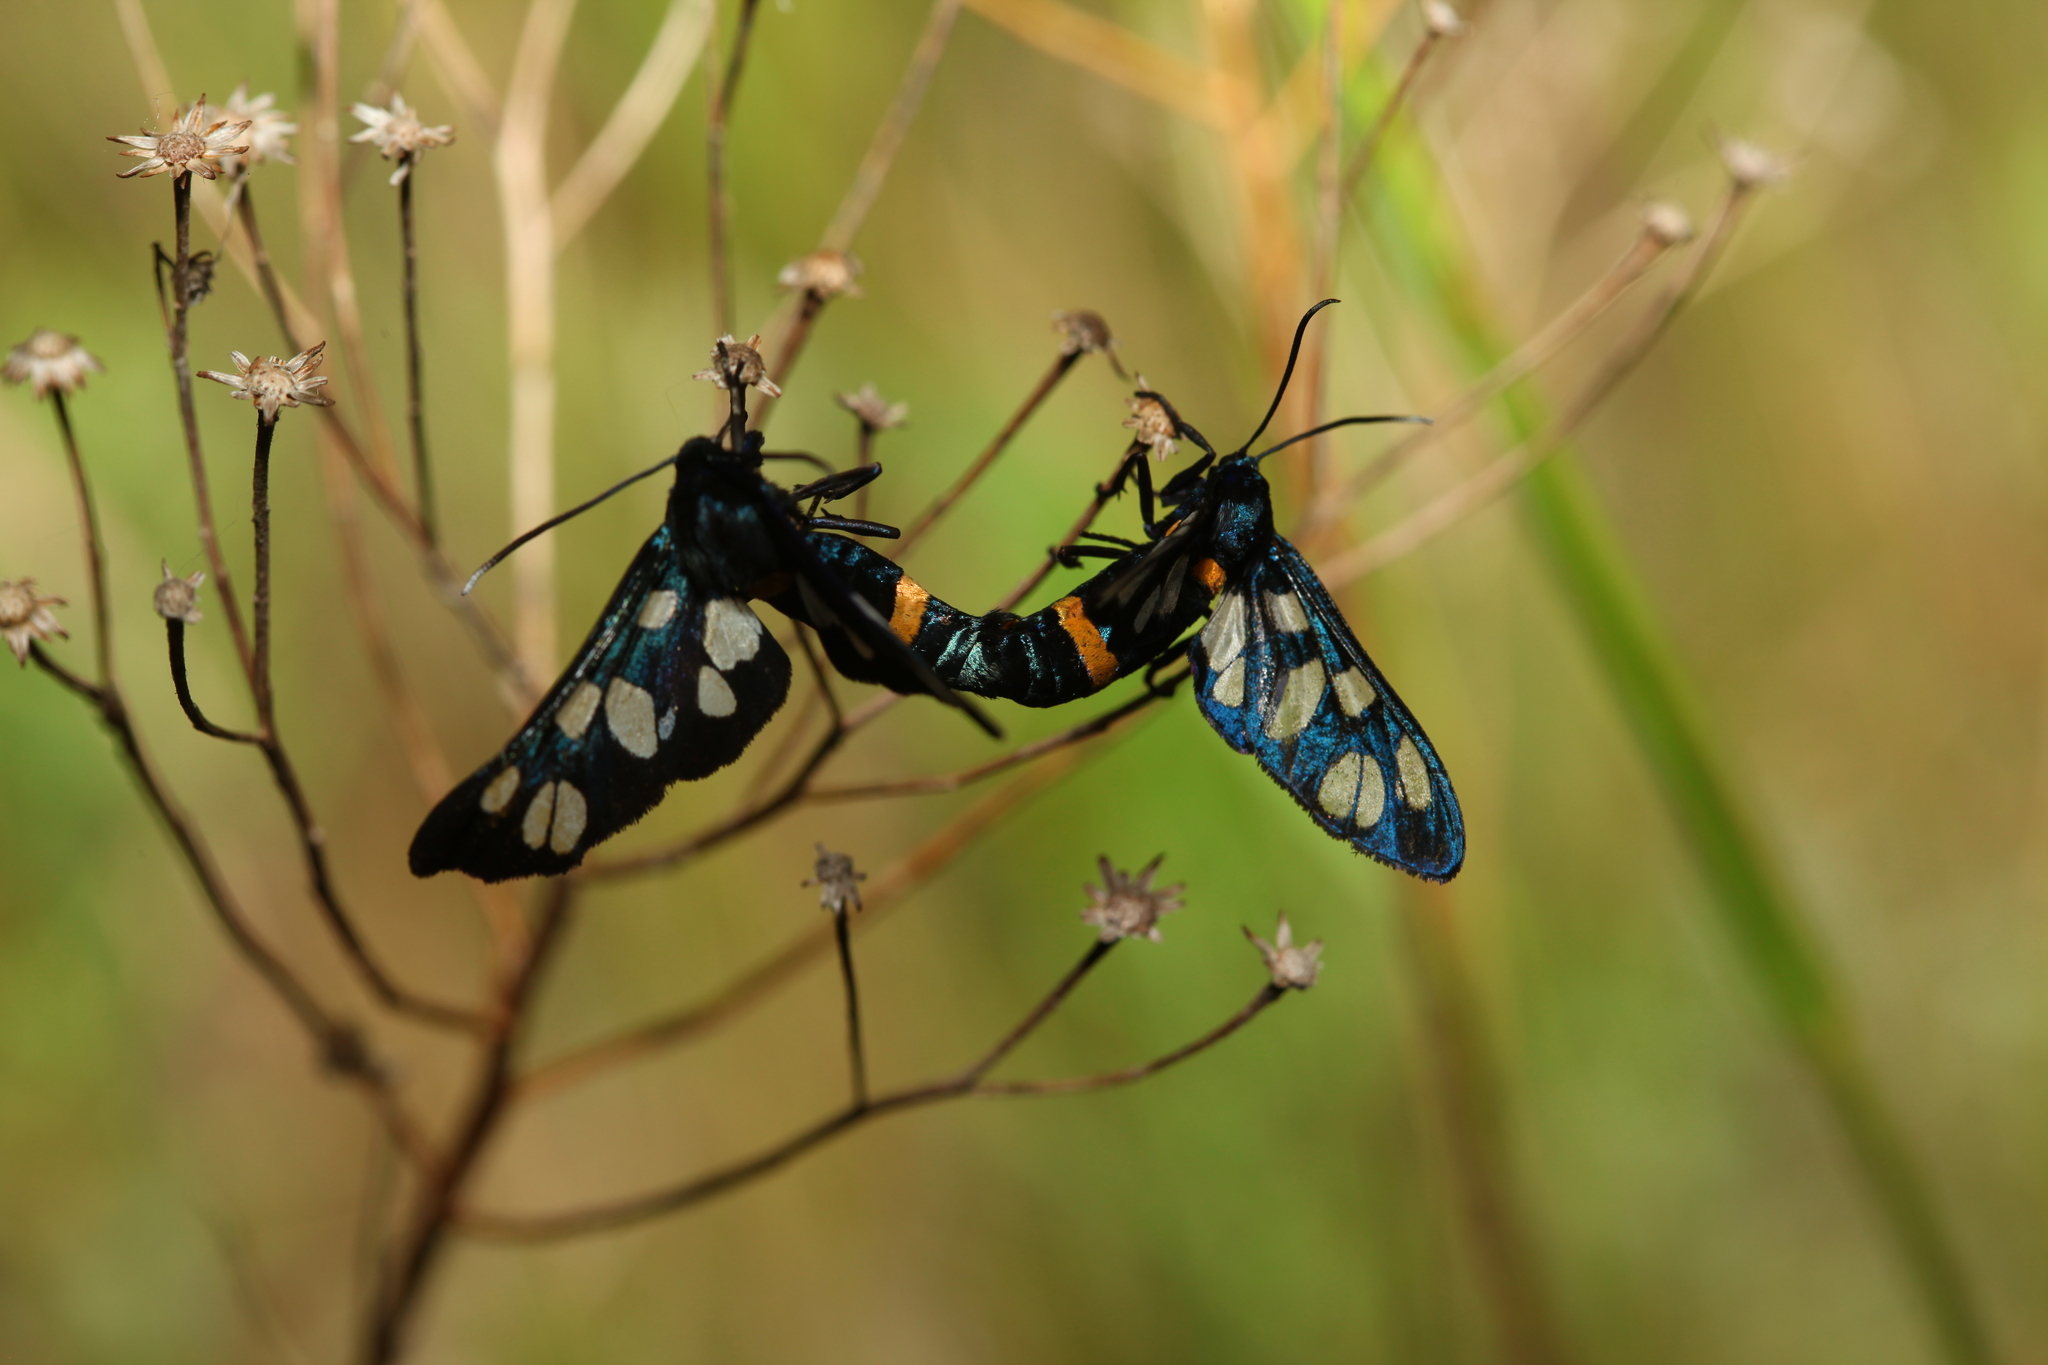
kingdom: Animalia
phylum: Arthropoda
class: Insecta
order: Lepidoptera
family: Erebidae
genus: Amata
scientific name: Amata transcaspica
